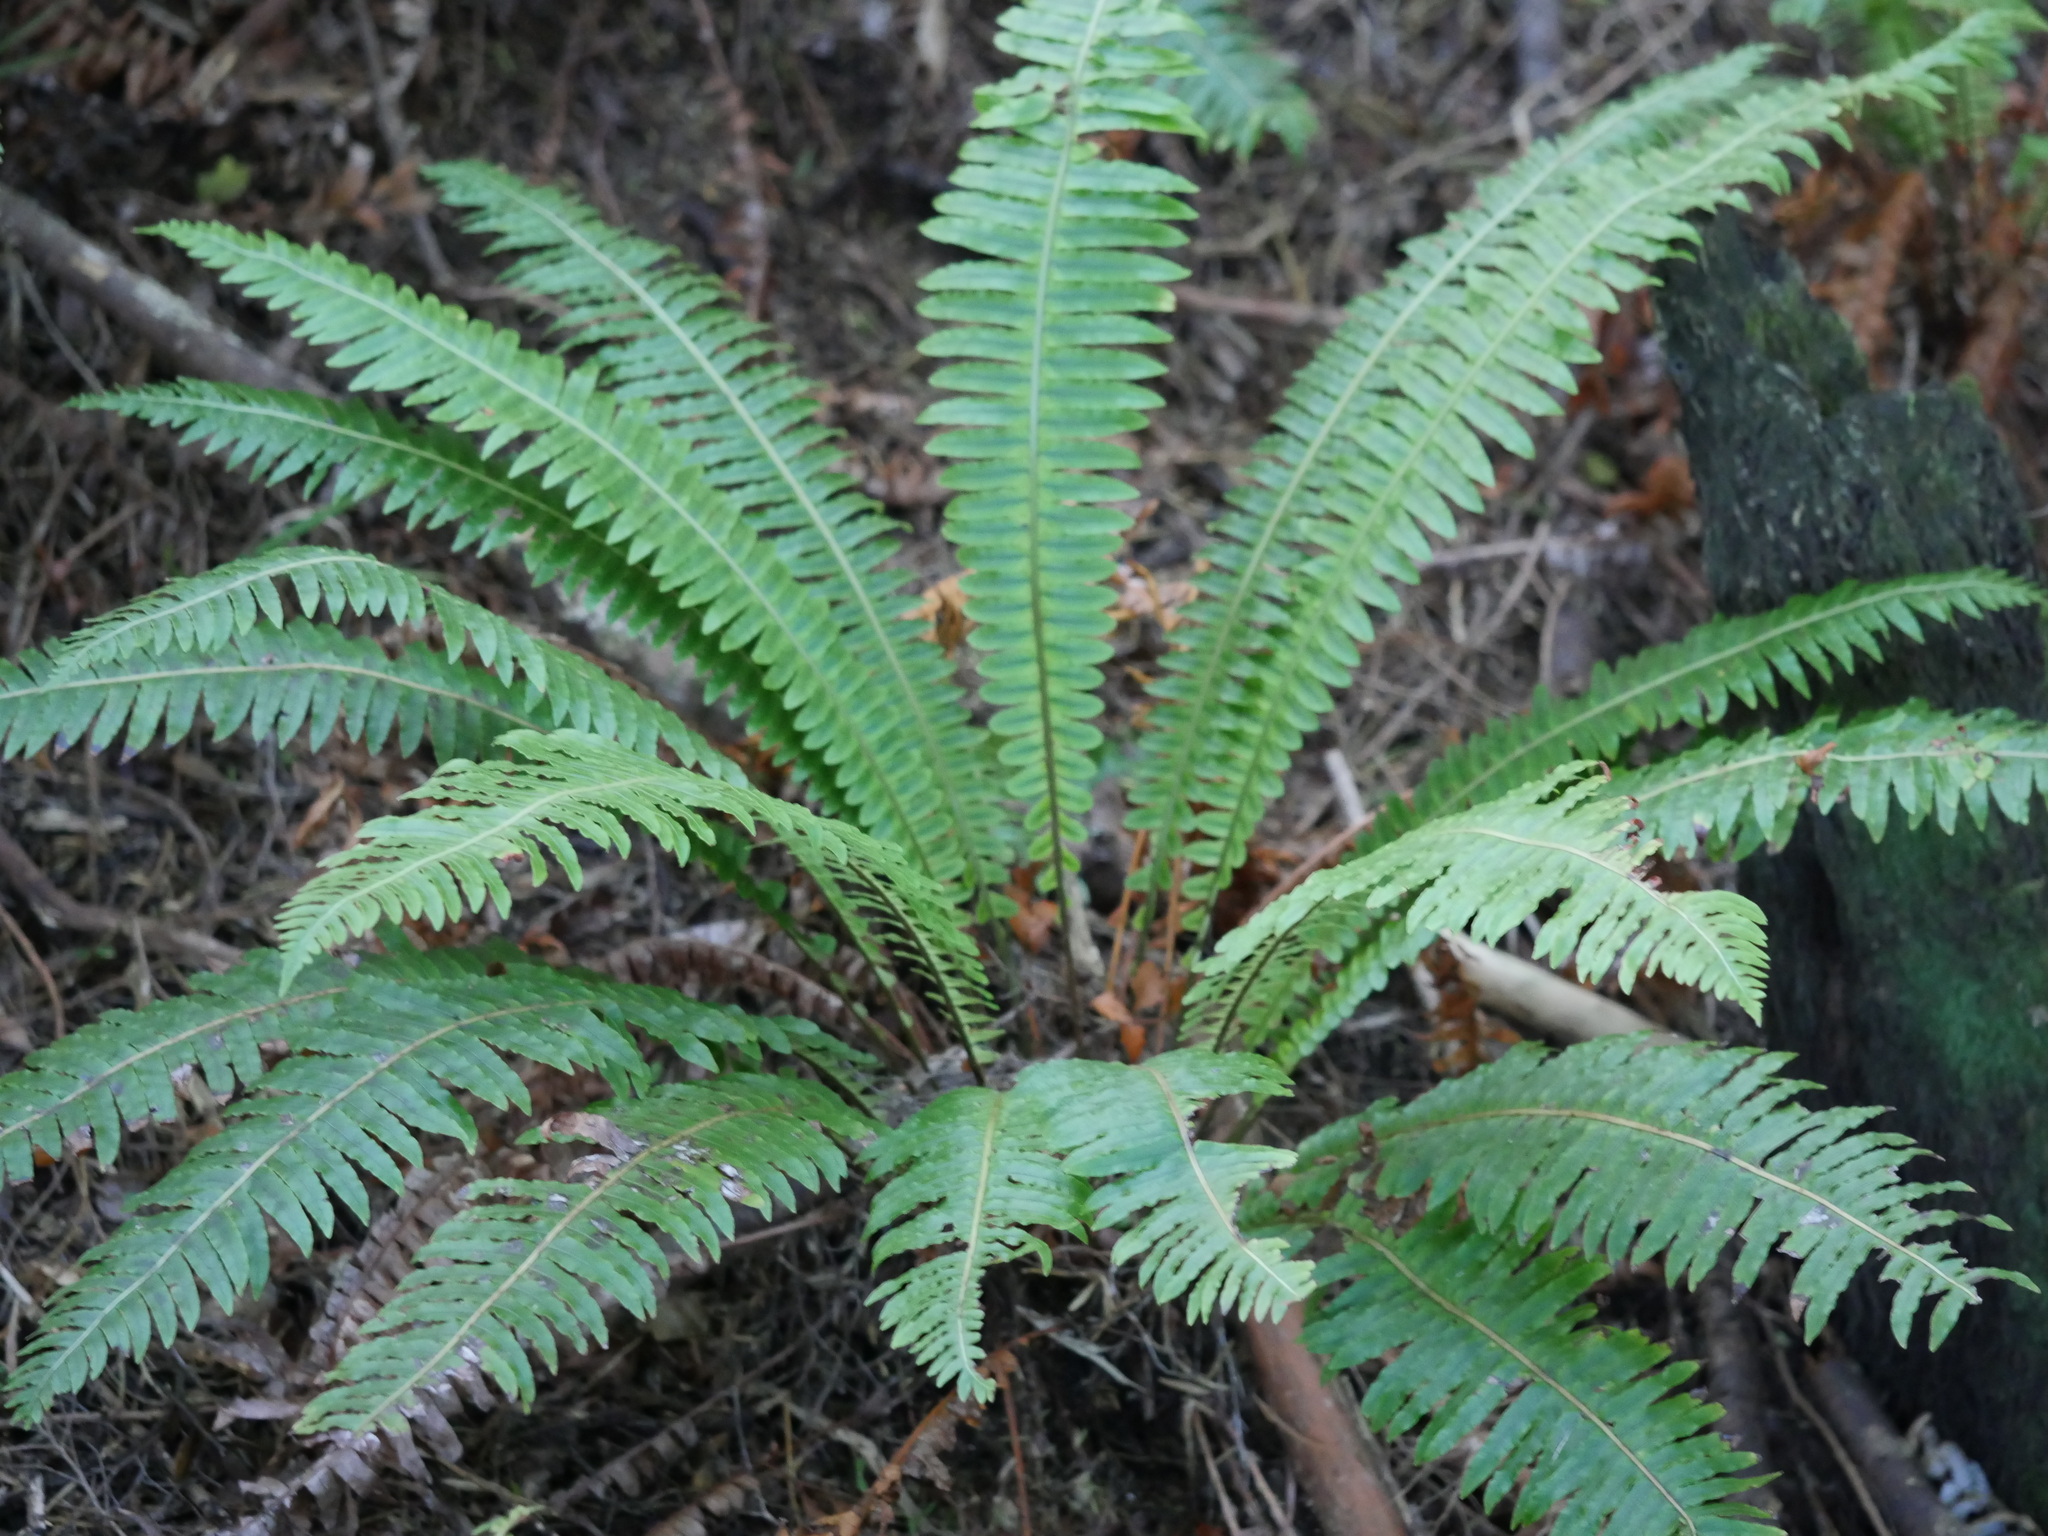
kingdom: Plantae
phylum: Tracheophyta
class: Polypodiopsida
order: Polypodiales
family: Blechnaceae
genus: Lomaria
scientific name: Lomaria discolor
